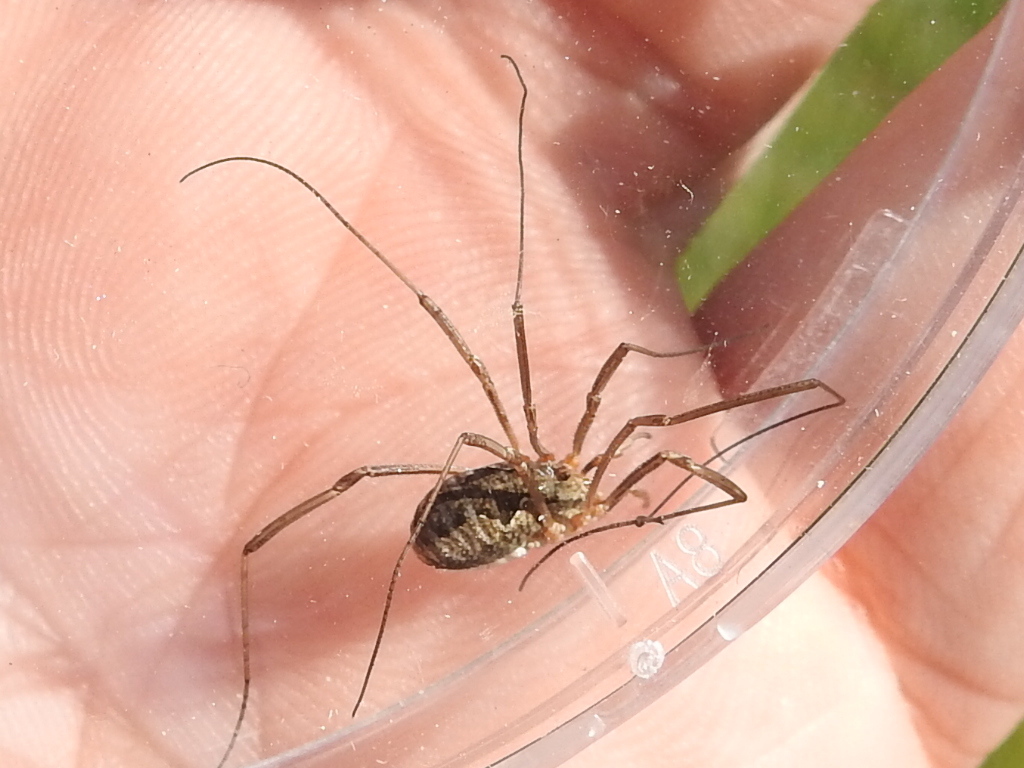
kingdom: Animalia
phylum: Arthropoda
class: Arachnida
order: Opiliones
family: Phalangiidae
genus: Phalangium
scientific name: Phalangium opilio
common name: Daddy longleg
